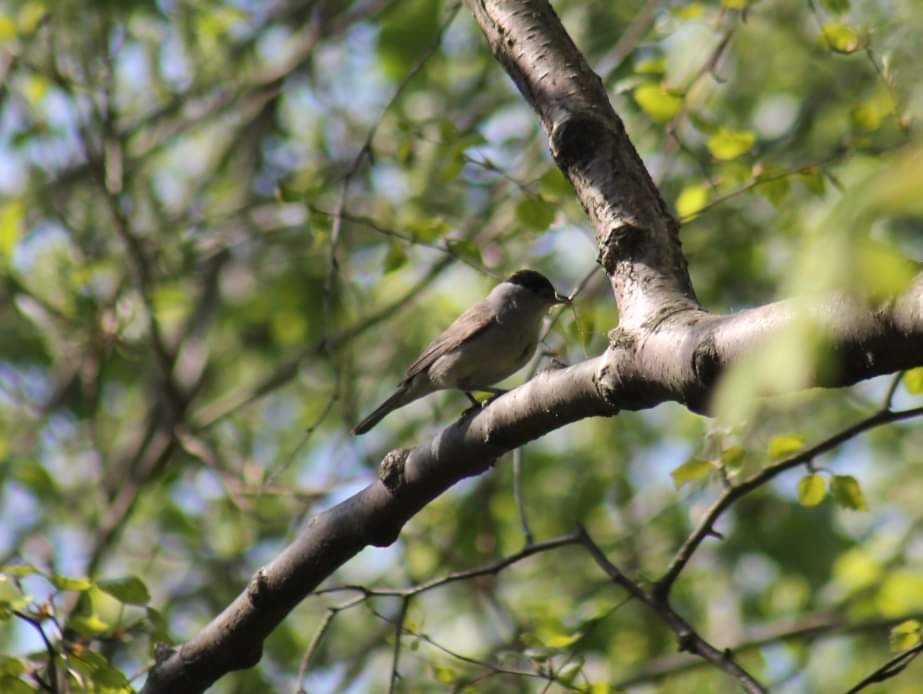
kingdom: Animalia
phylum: Chordata
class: Aves
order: Passeriformes
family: Sylviidae
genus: Sylvia
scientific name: Sylvia atricapilla
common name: Eurasian blackcap
